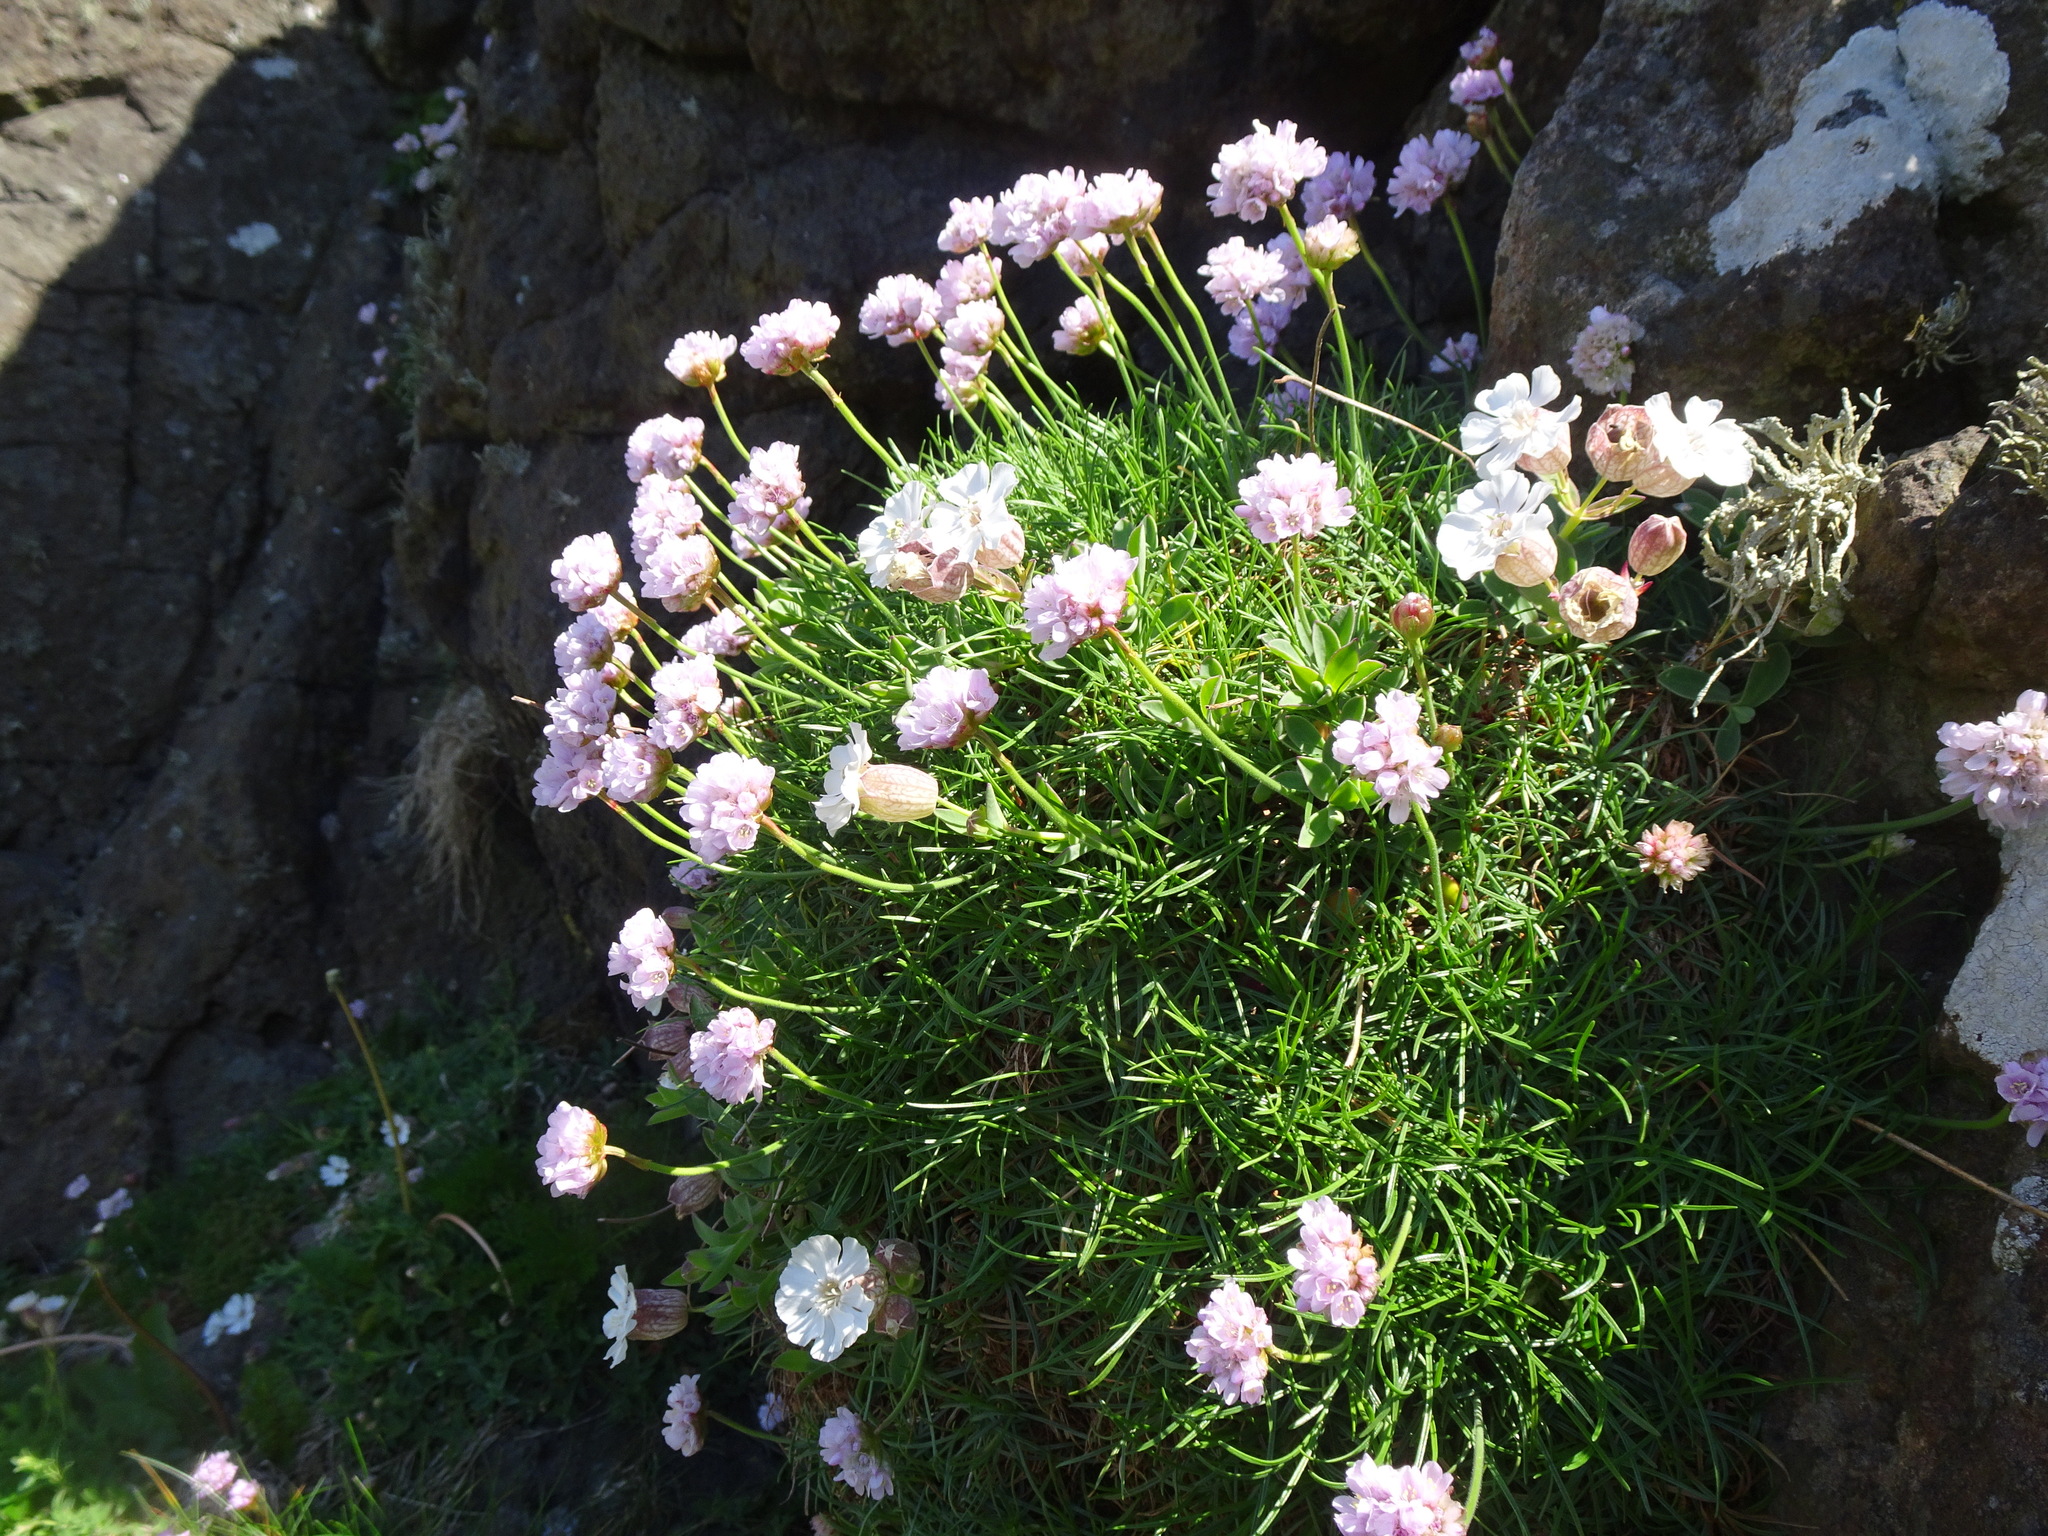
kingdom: Plantae
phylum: Tracheophyta
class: Magnoliopsida
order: Caryophyllales
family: Plumbaginaceae
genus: Armeria
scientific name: Armeria maritima
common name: Thrift
